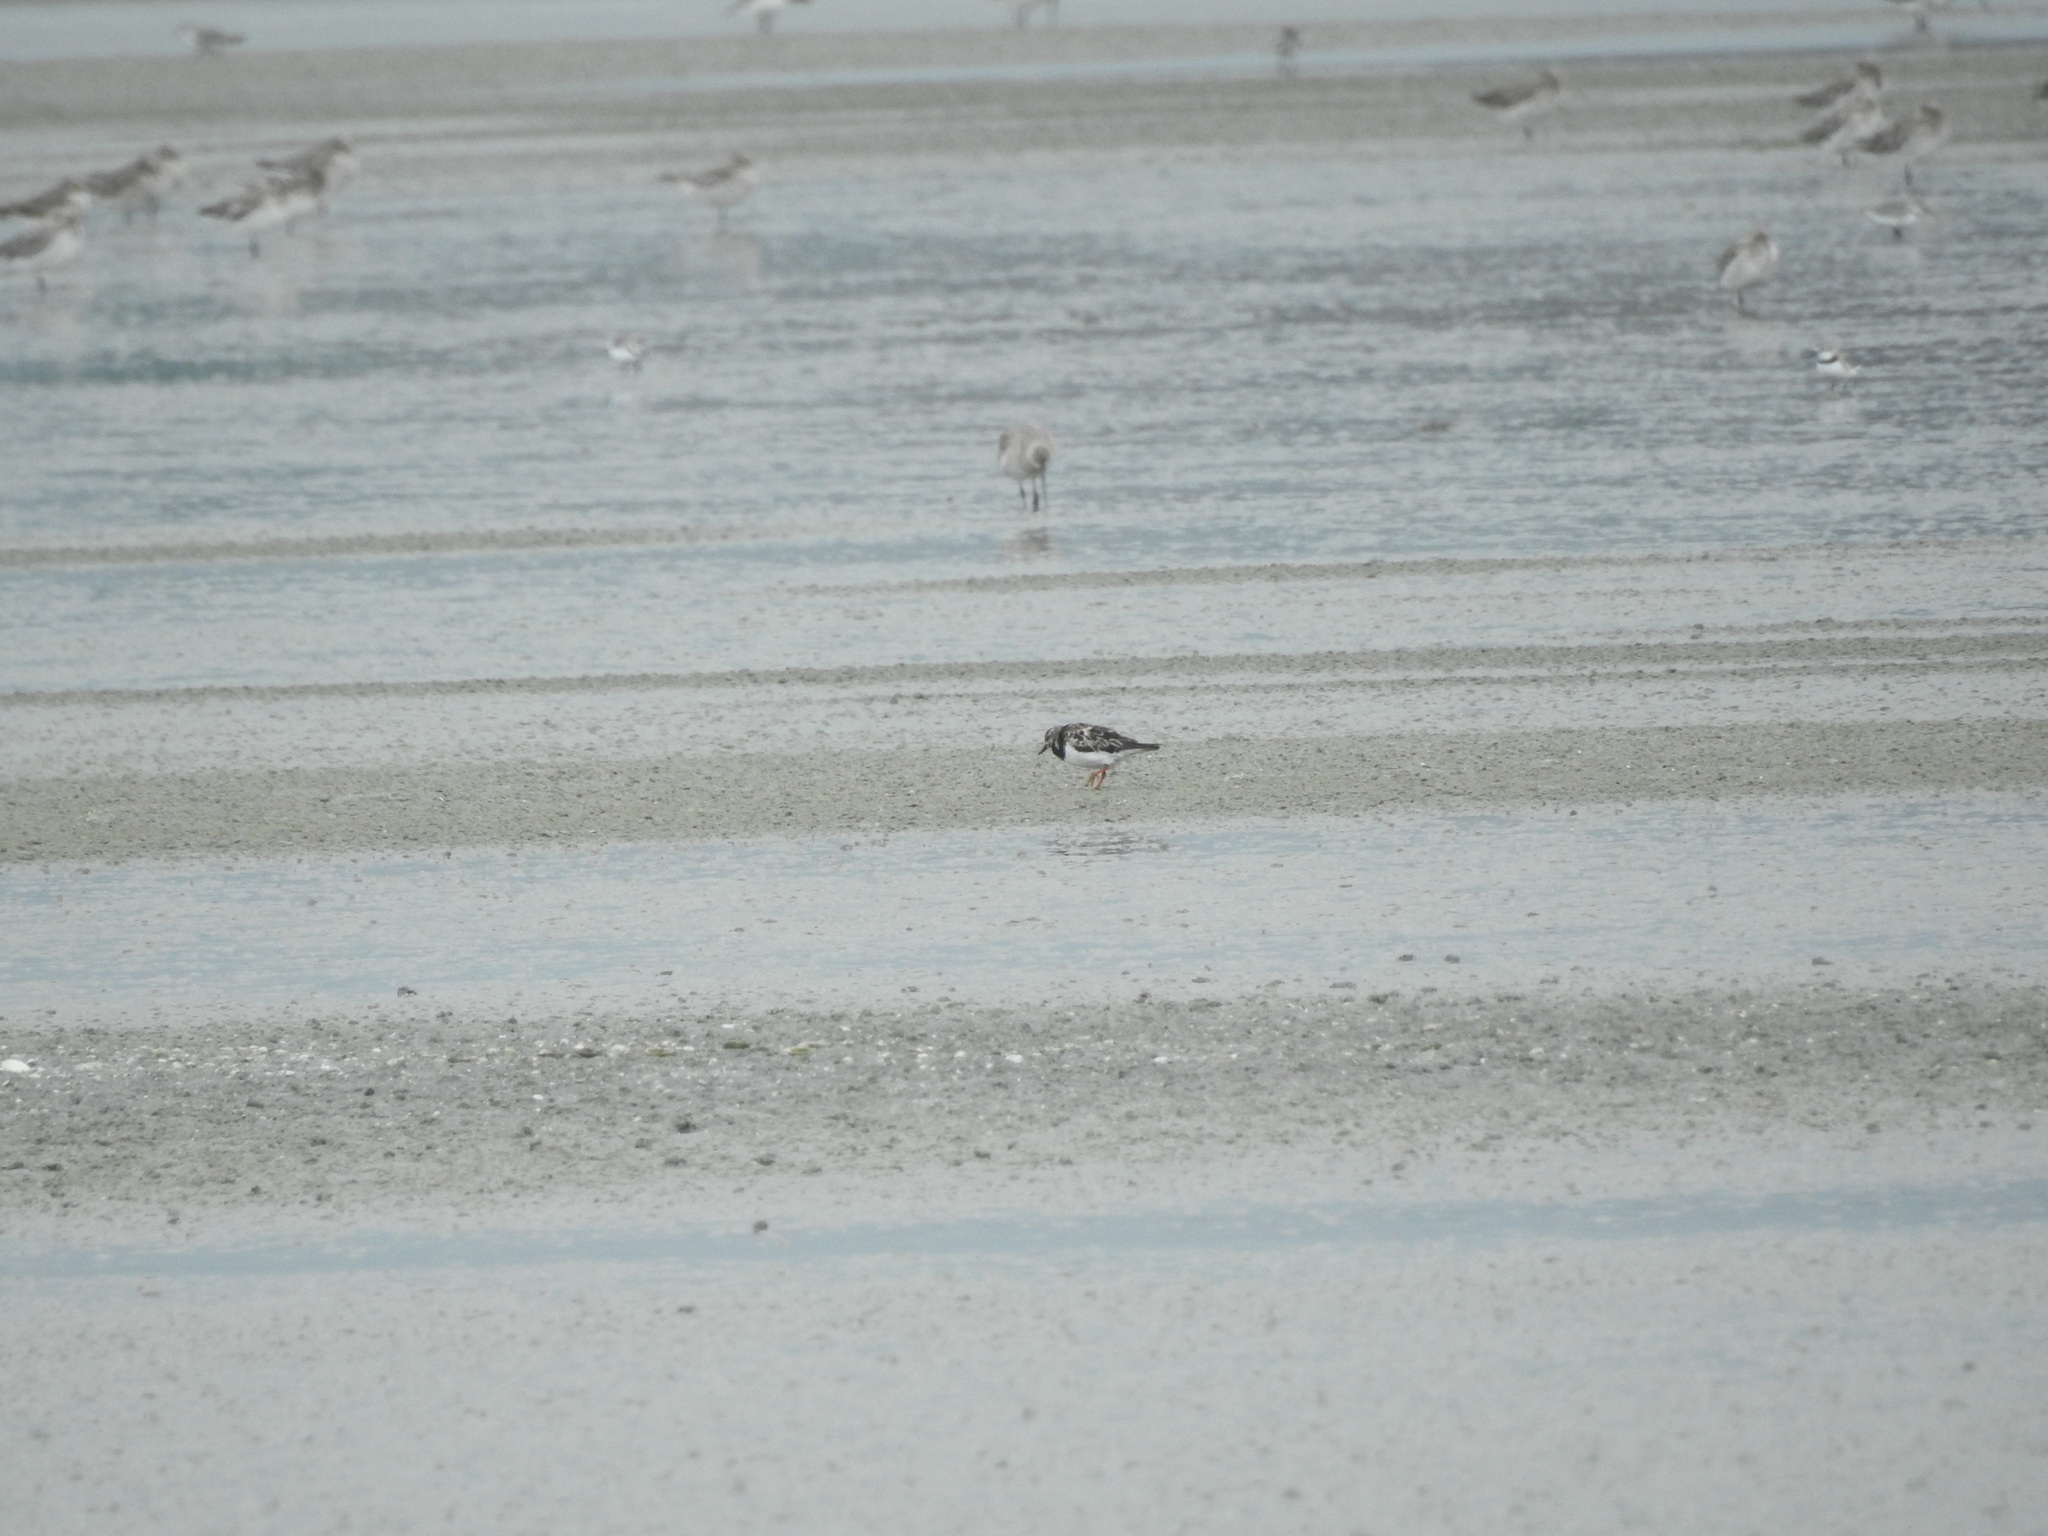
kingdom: Animalia
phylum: Chordata
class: Aves
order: Charadriiformes
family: Scolopacidae
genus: Arenaria
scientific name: Arenaria interpres
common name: Ruddy turnstone
